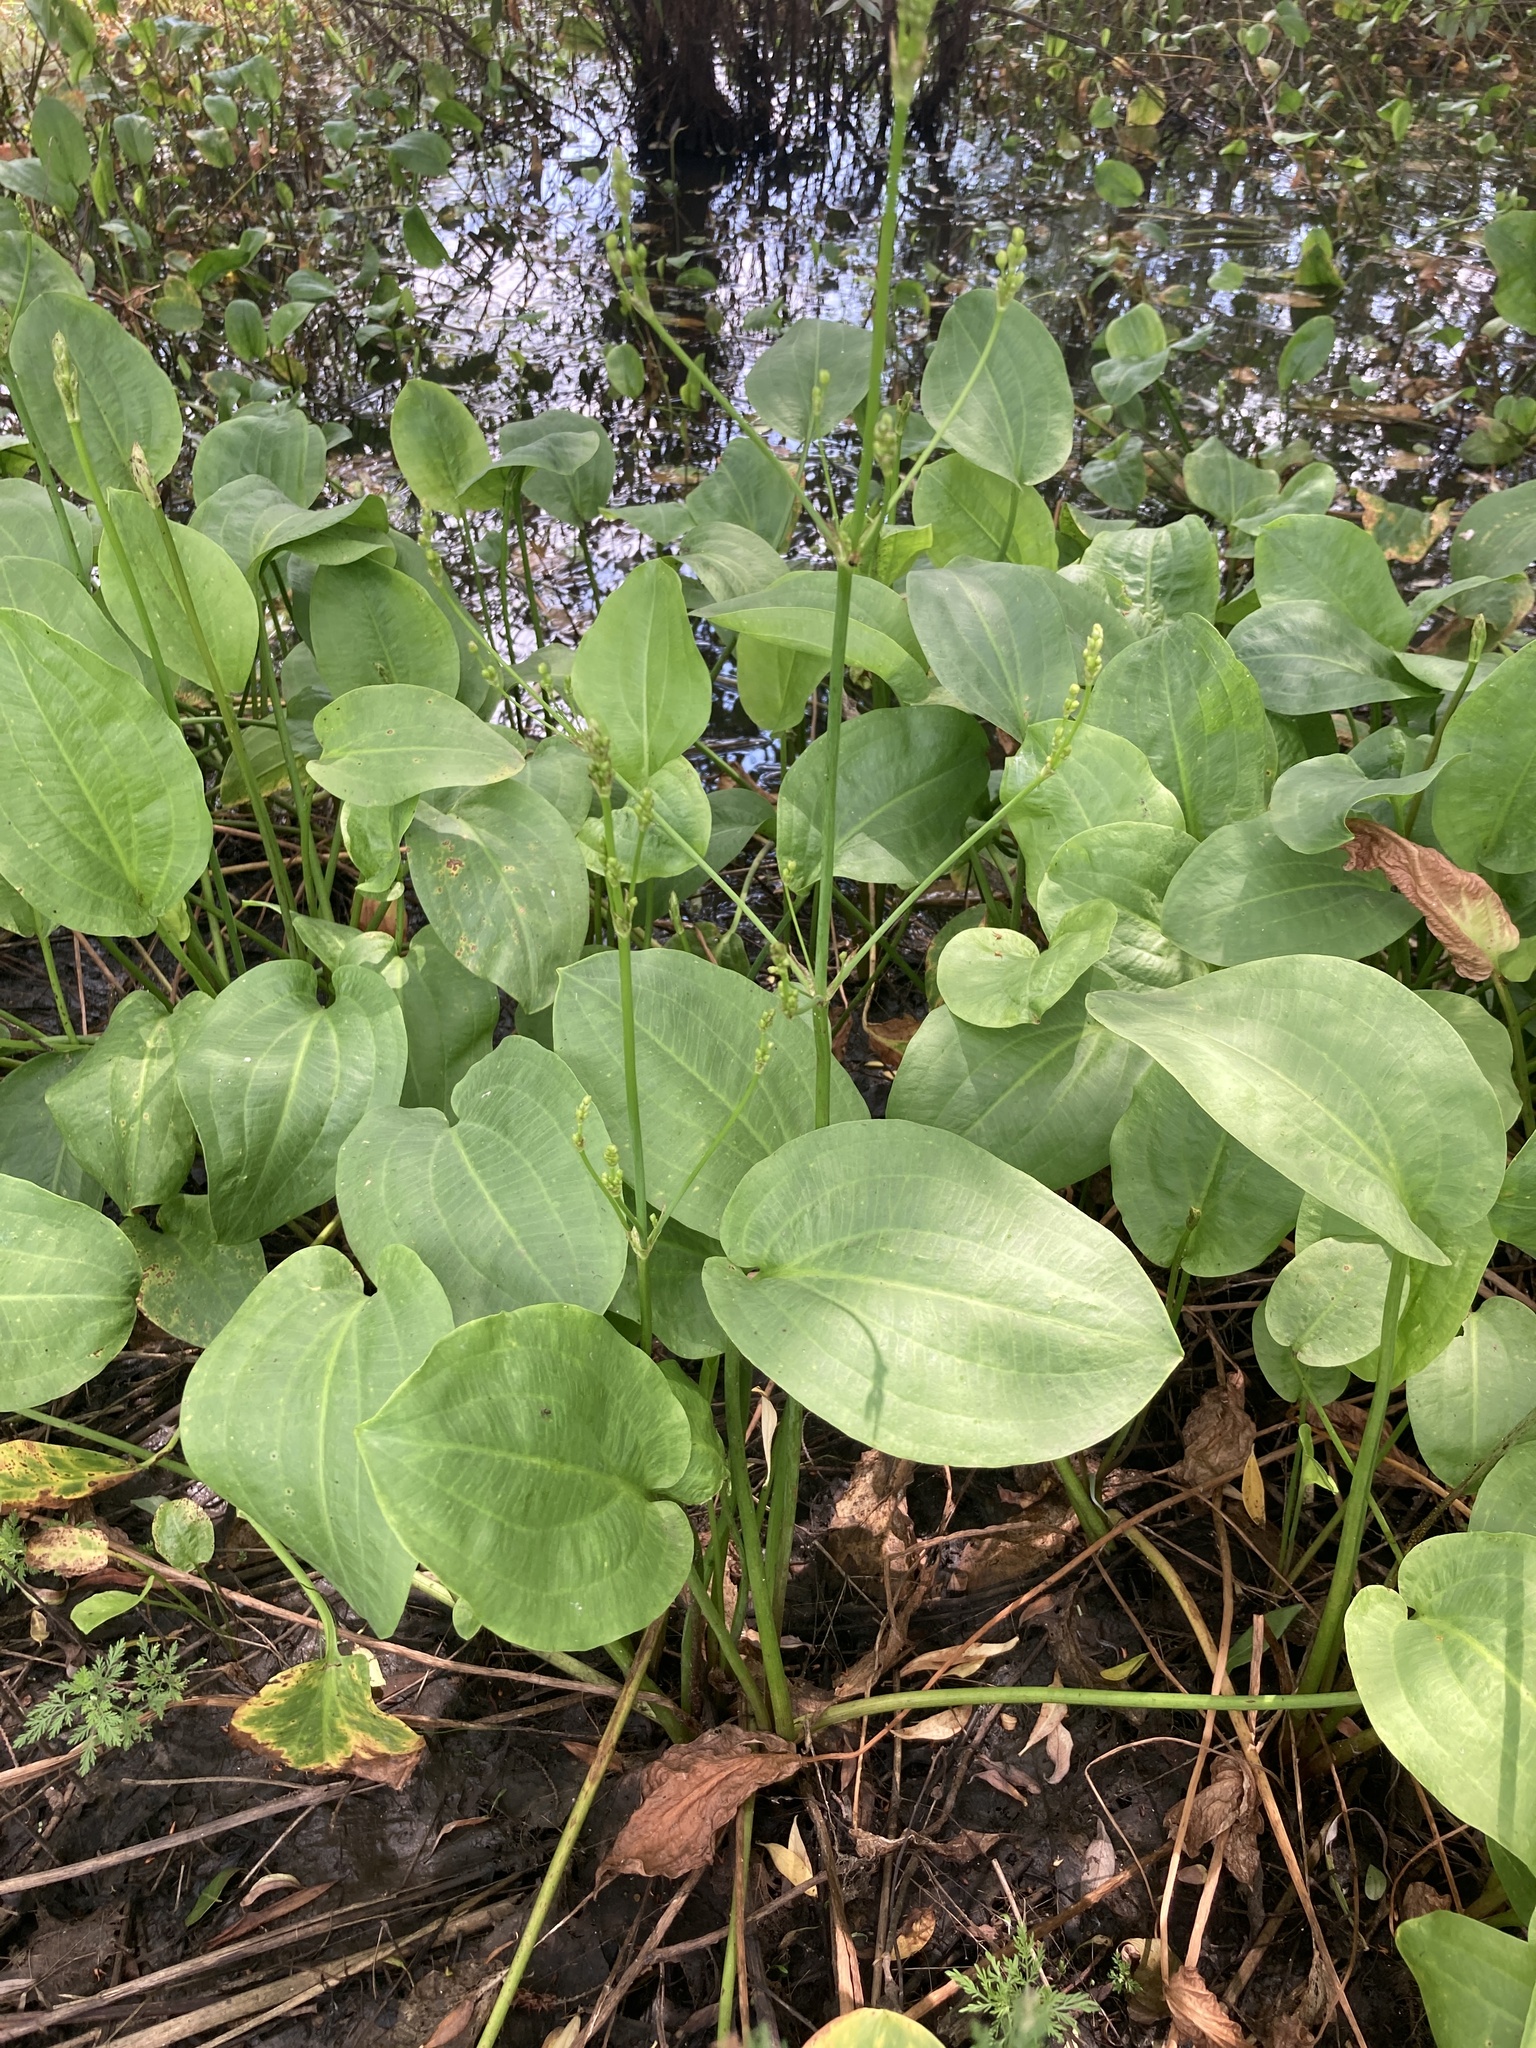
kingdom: Plantae
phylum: Tracheophyta
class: Liliopsida
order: Alismatales
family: Alismataceae
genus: Alisma
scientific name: Alisma plantago-aquatica
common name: Water-plantain
